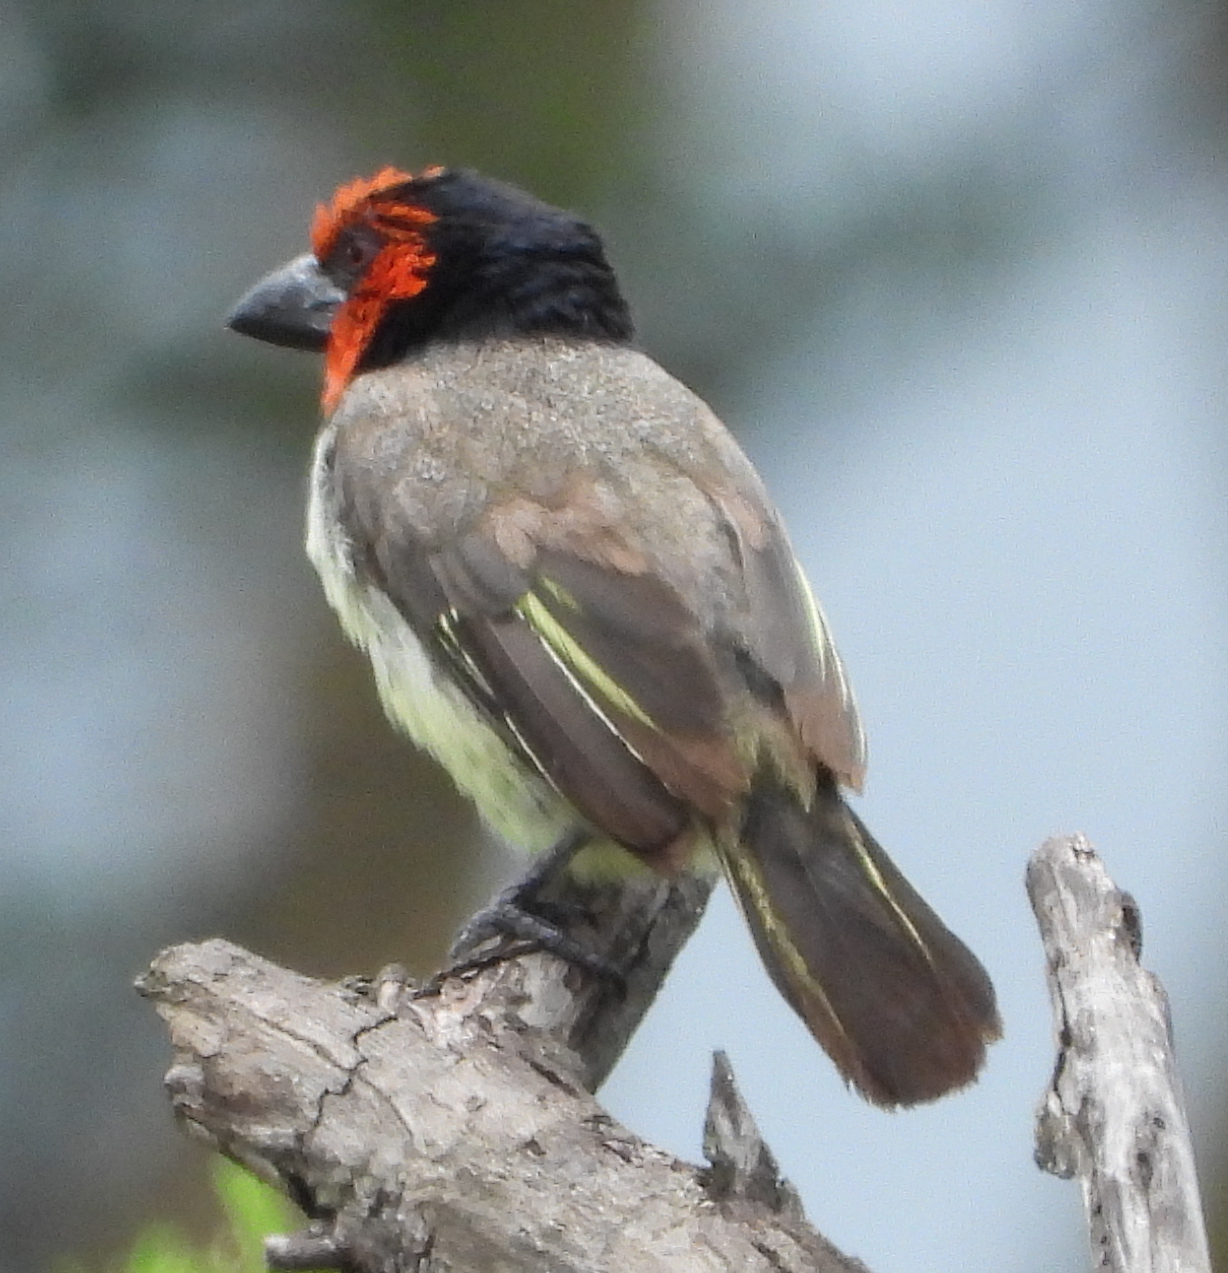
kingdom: Animalia
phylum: Chordata
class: Aves
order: Piciformes
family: Lybiidae
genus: Lybius
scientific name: Lybius torquatus
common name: Black-collared barbet
